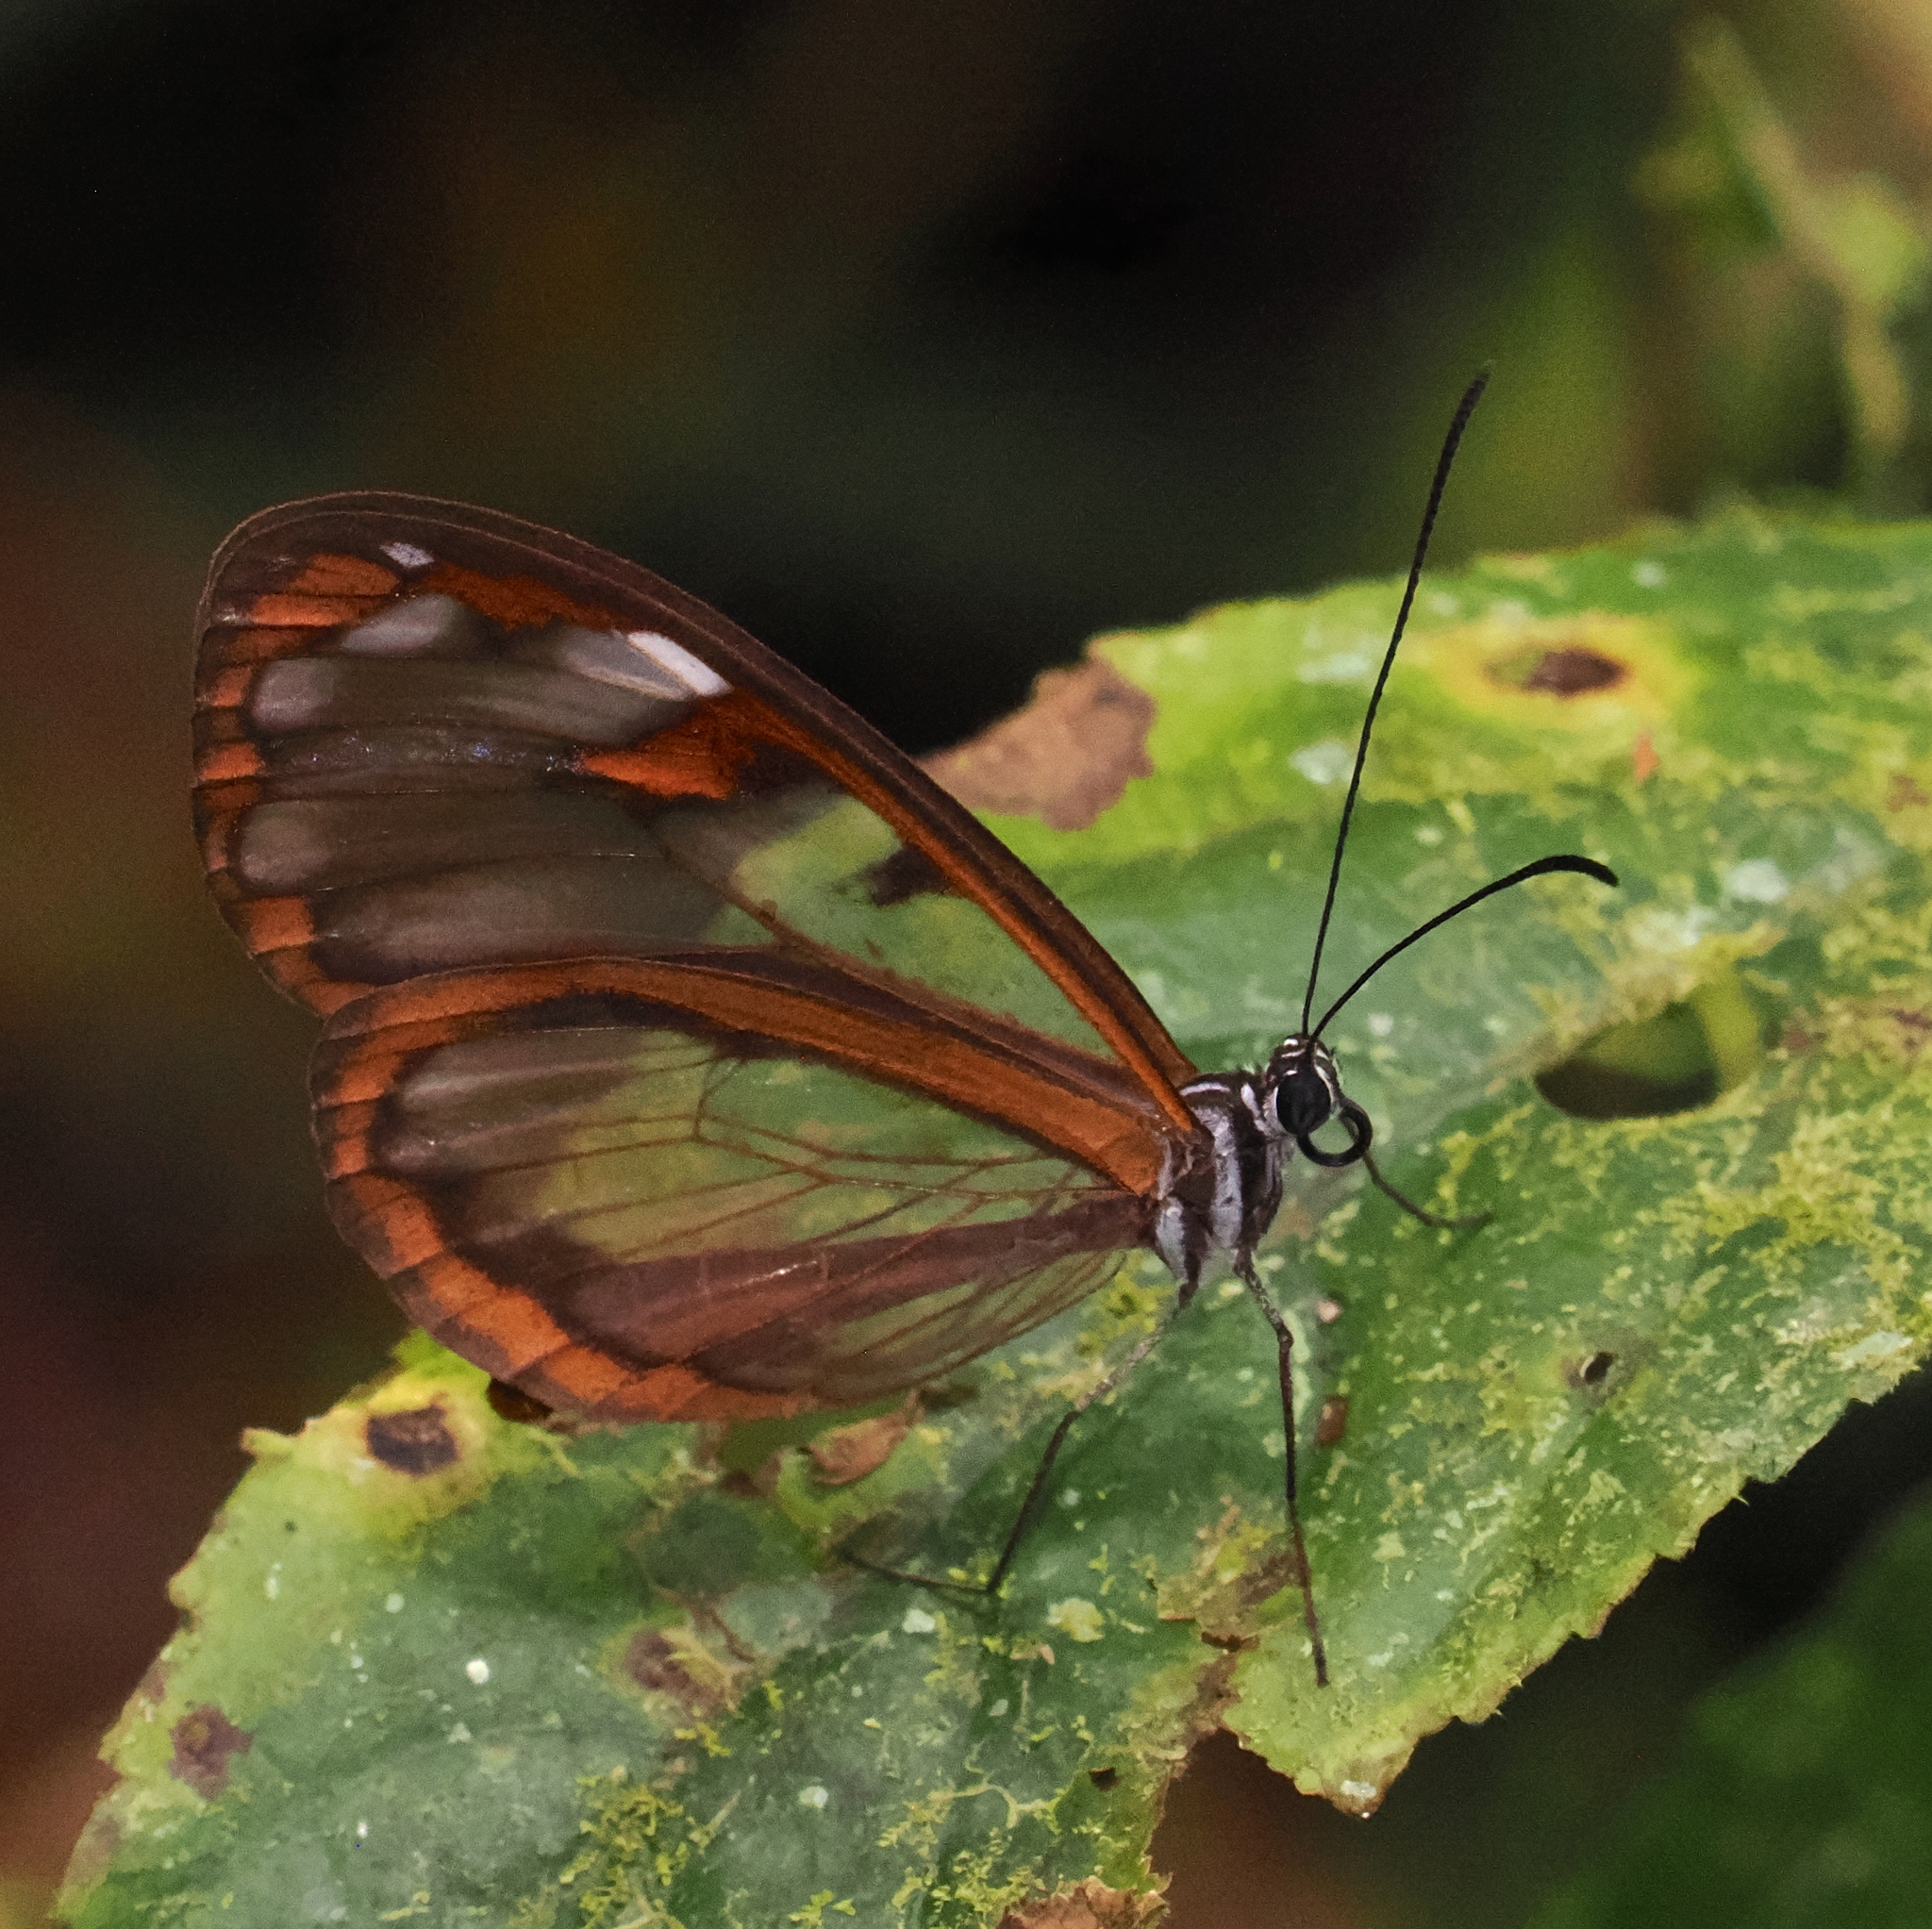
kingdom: Animalia
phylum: Arthropoda
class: Insecta
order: Lepidoptera
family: Nymphalidae
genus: Oleria
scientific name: Oleria fumata
